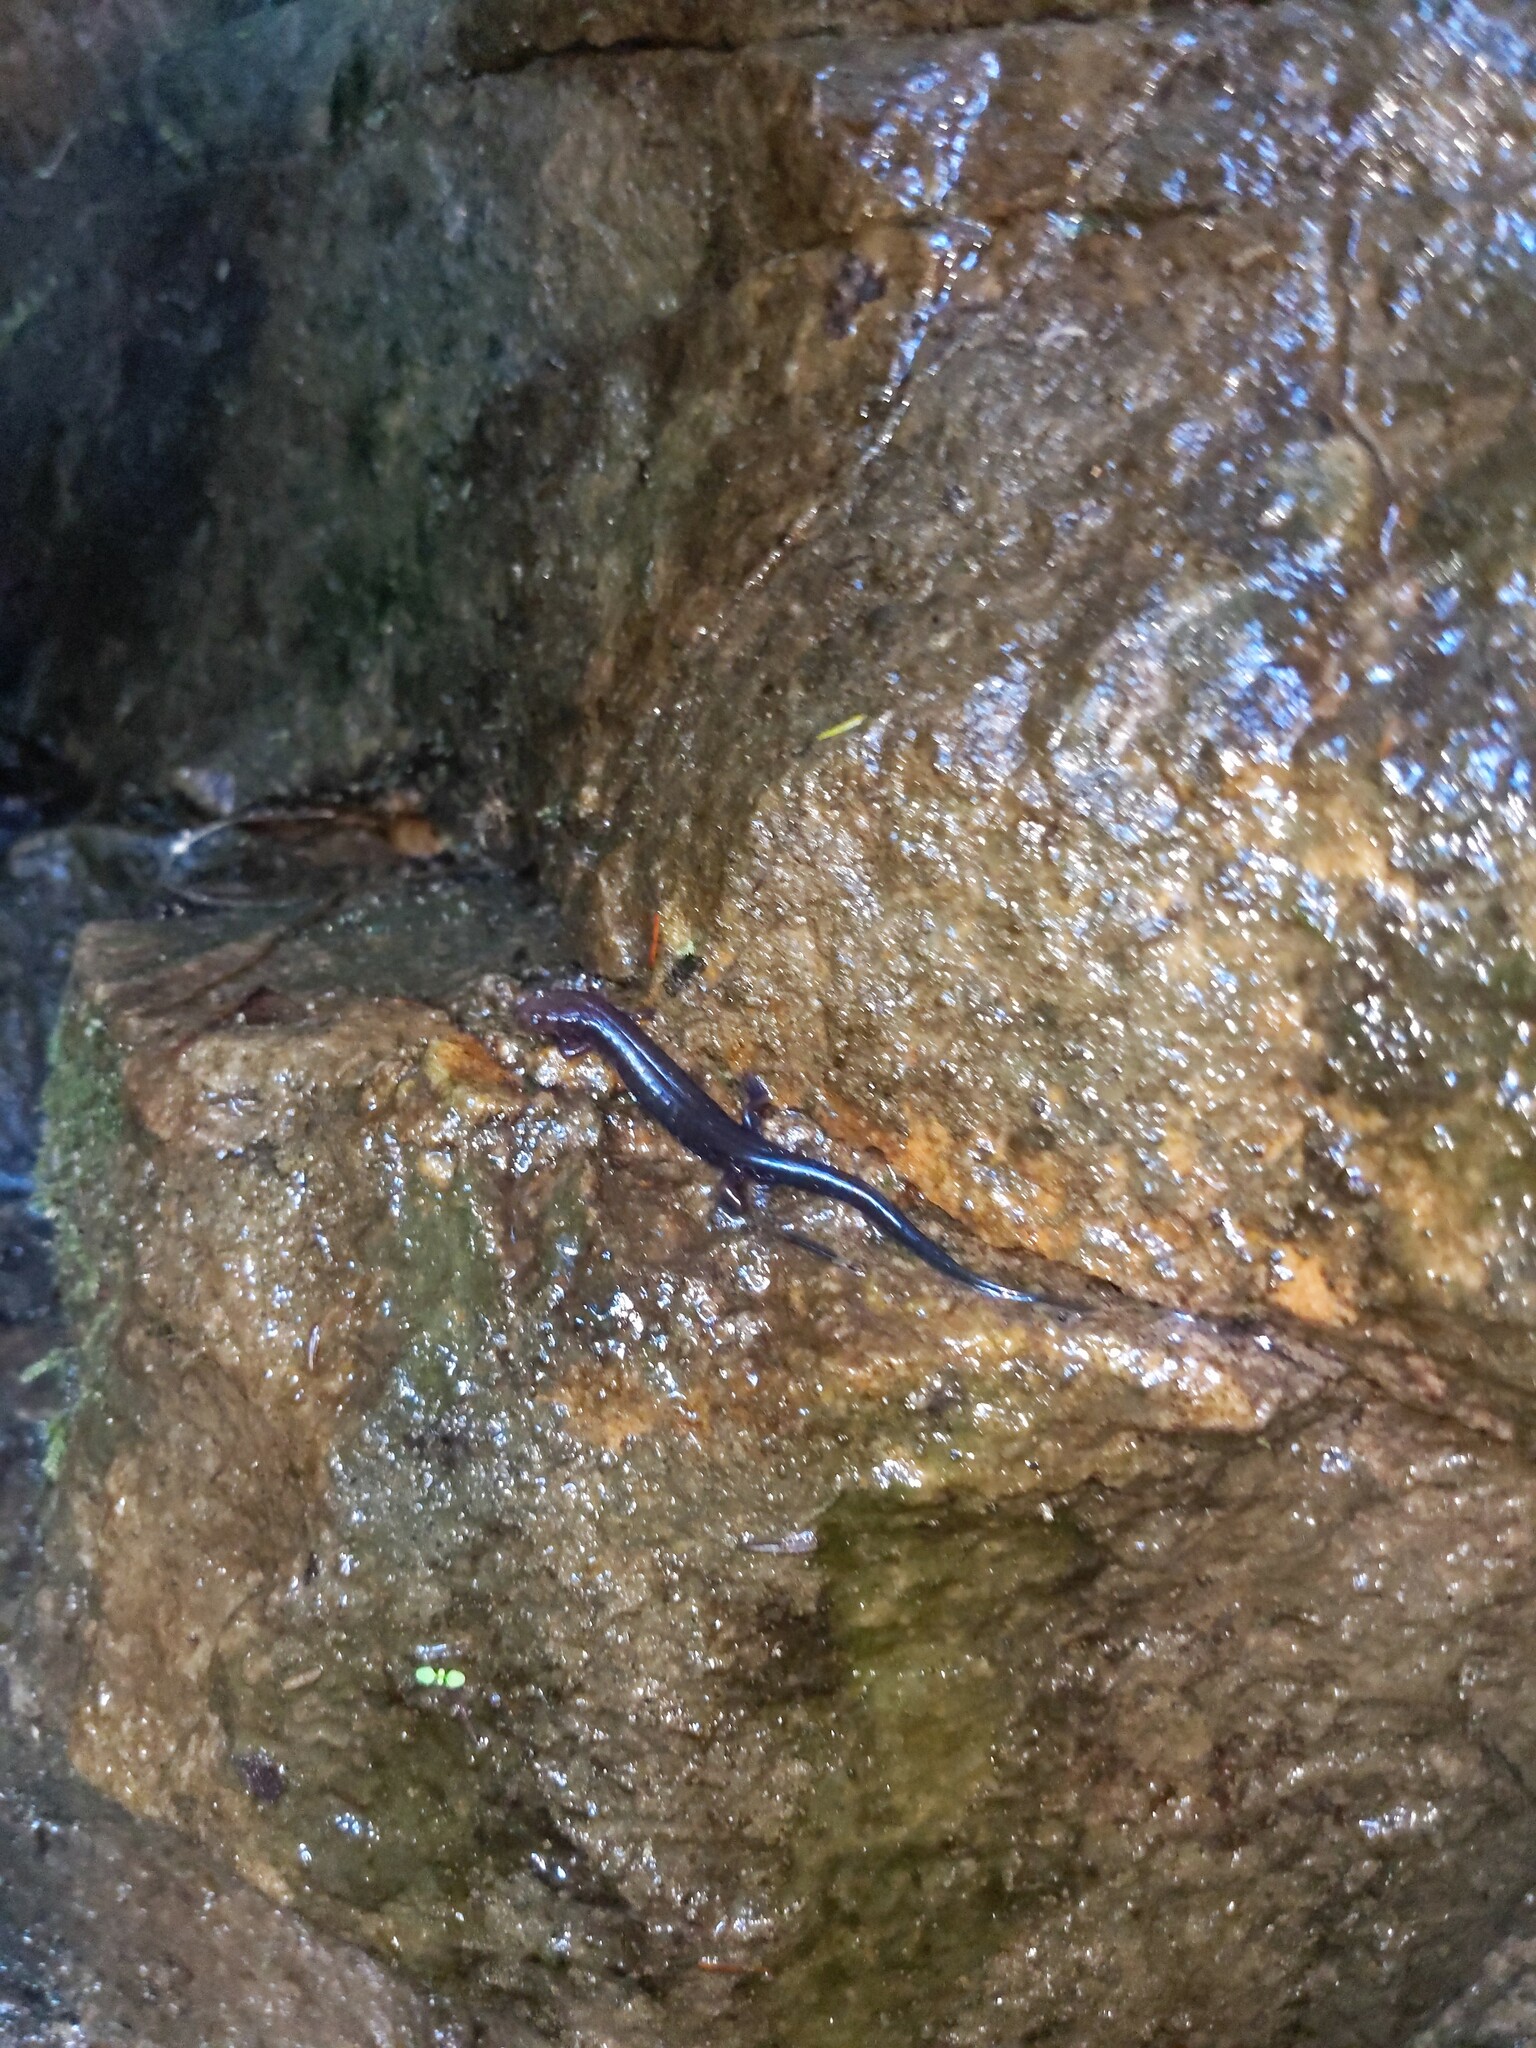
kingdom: Animalia
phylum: Chordata
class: Amphibia
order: Caudata
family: Plethodontidae
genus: Desmognathus
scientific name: Desmognathus ochrophaeus
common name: Allegheny mountain dusky salamander
